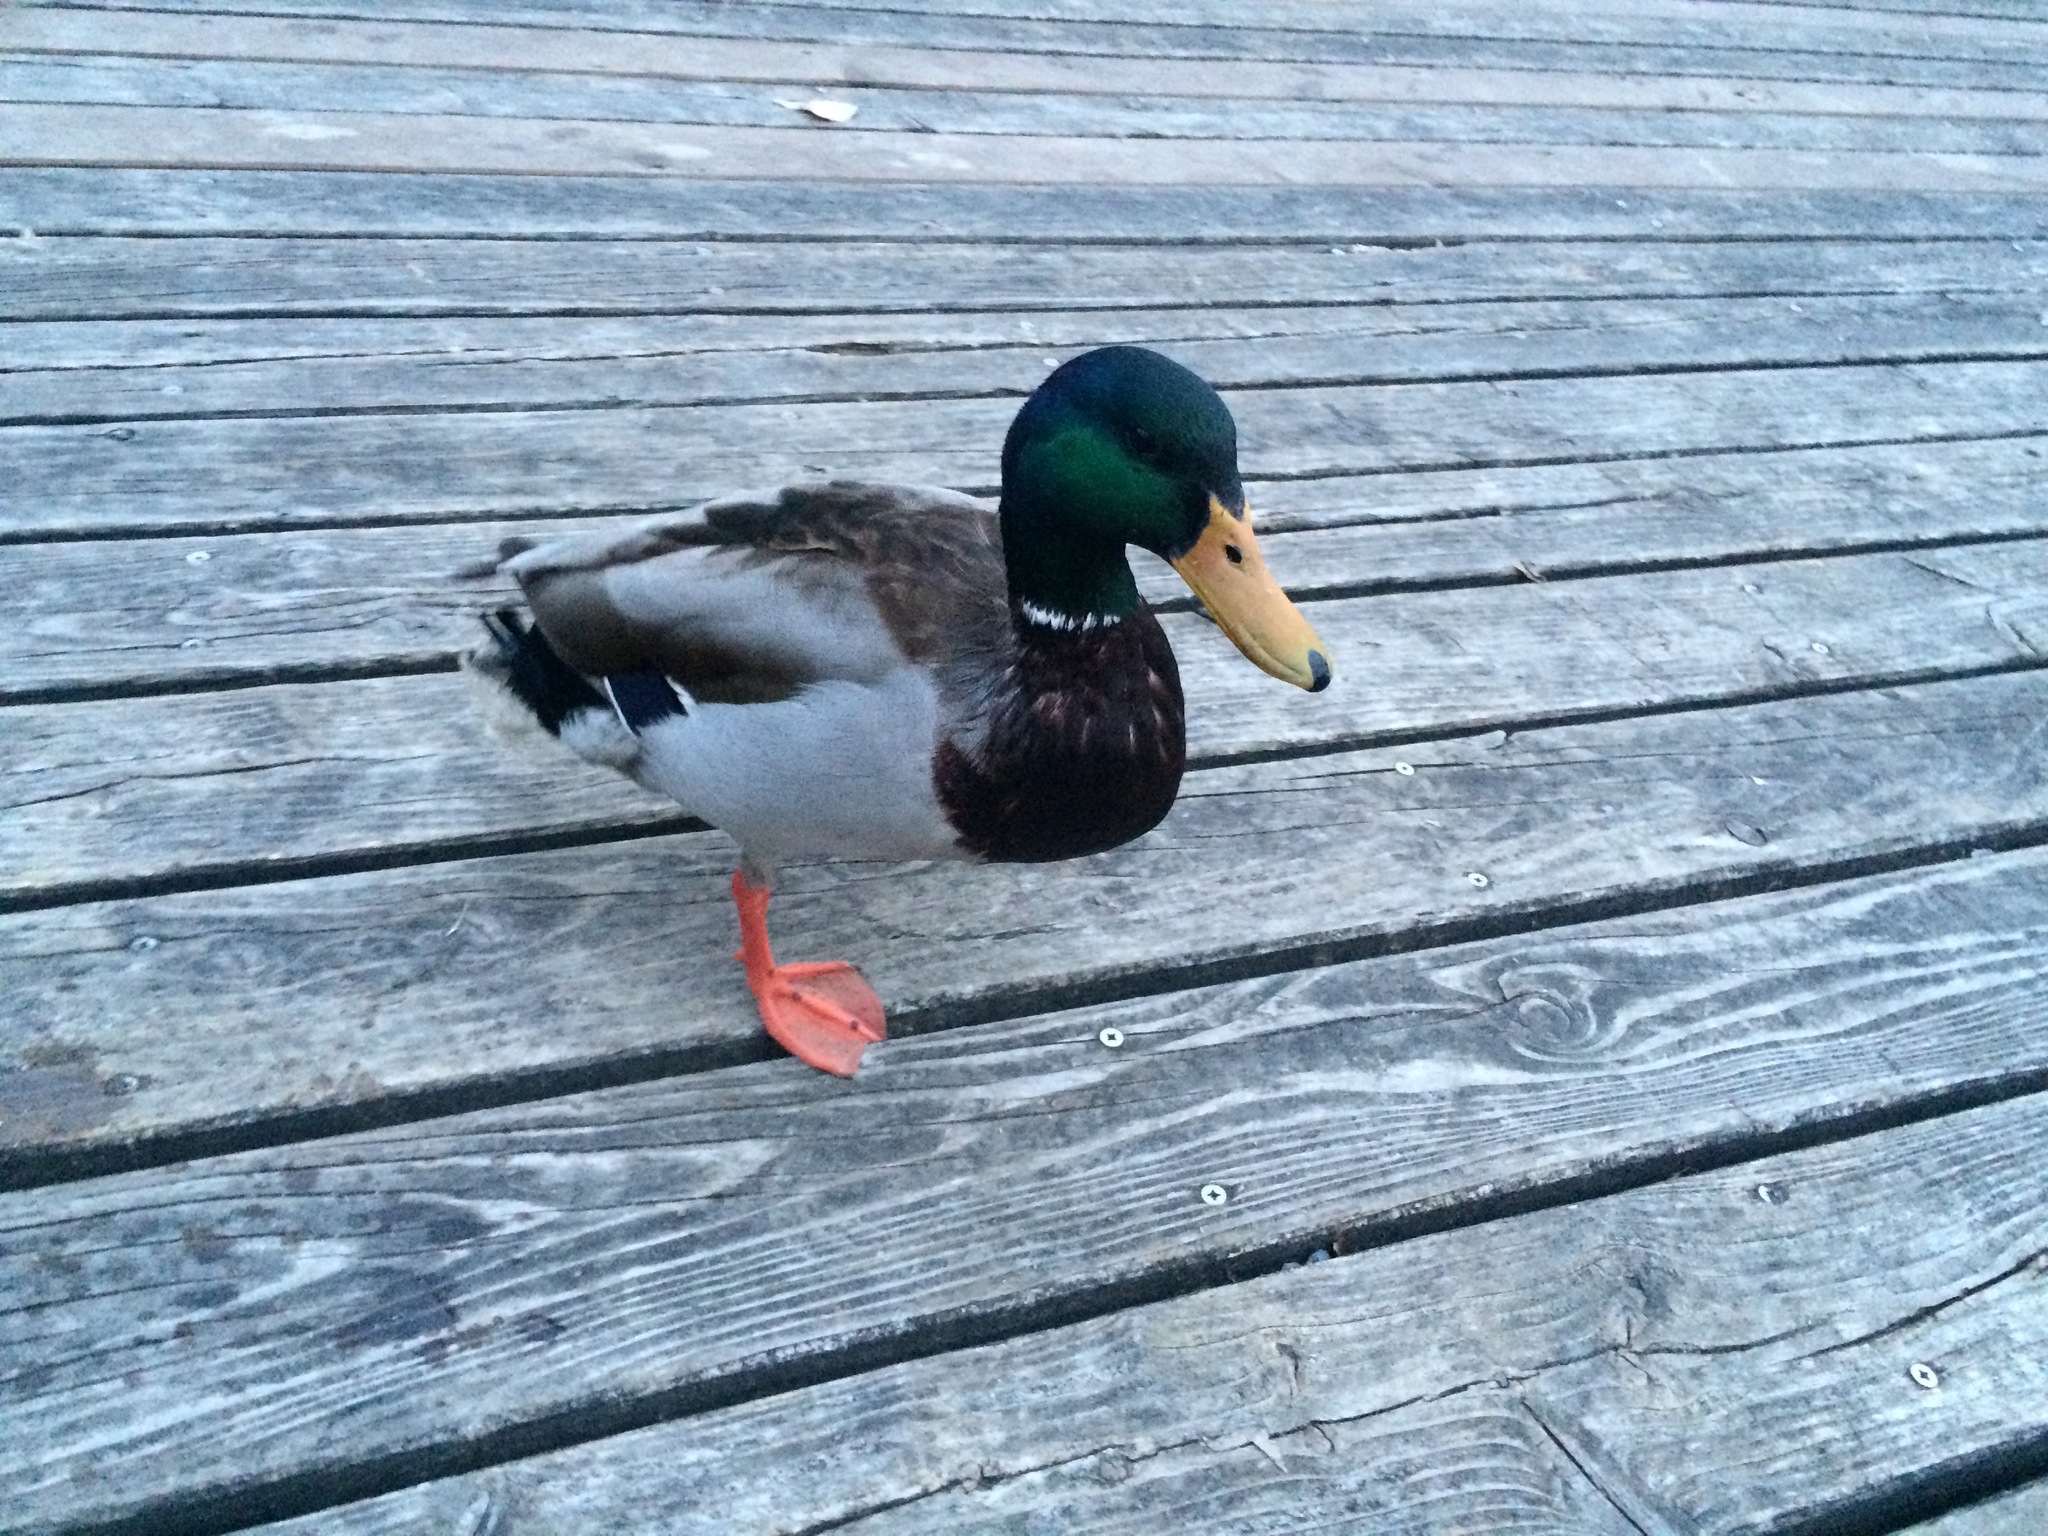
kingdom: Animalia
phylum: Chordata
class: Aves
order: Anseriformes
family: Anatidae
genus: Anas
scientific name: Anas platyrhynchos
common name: Mallard
